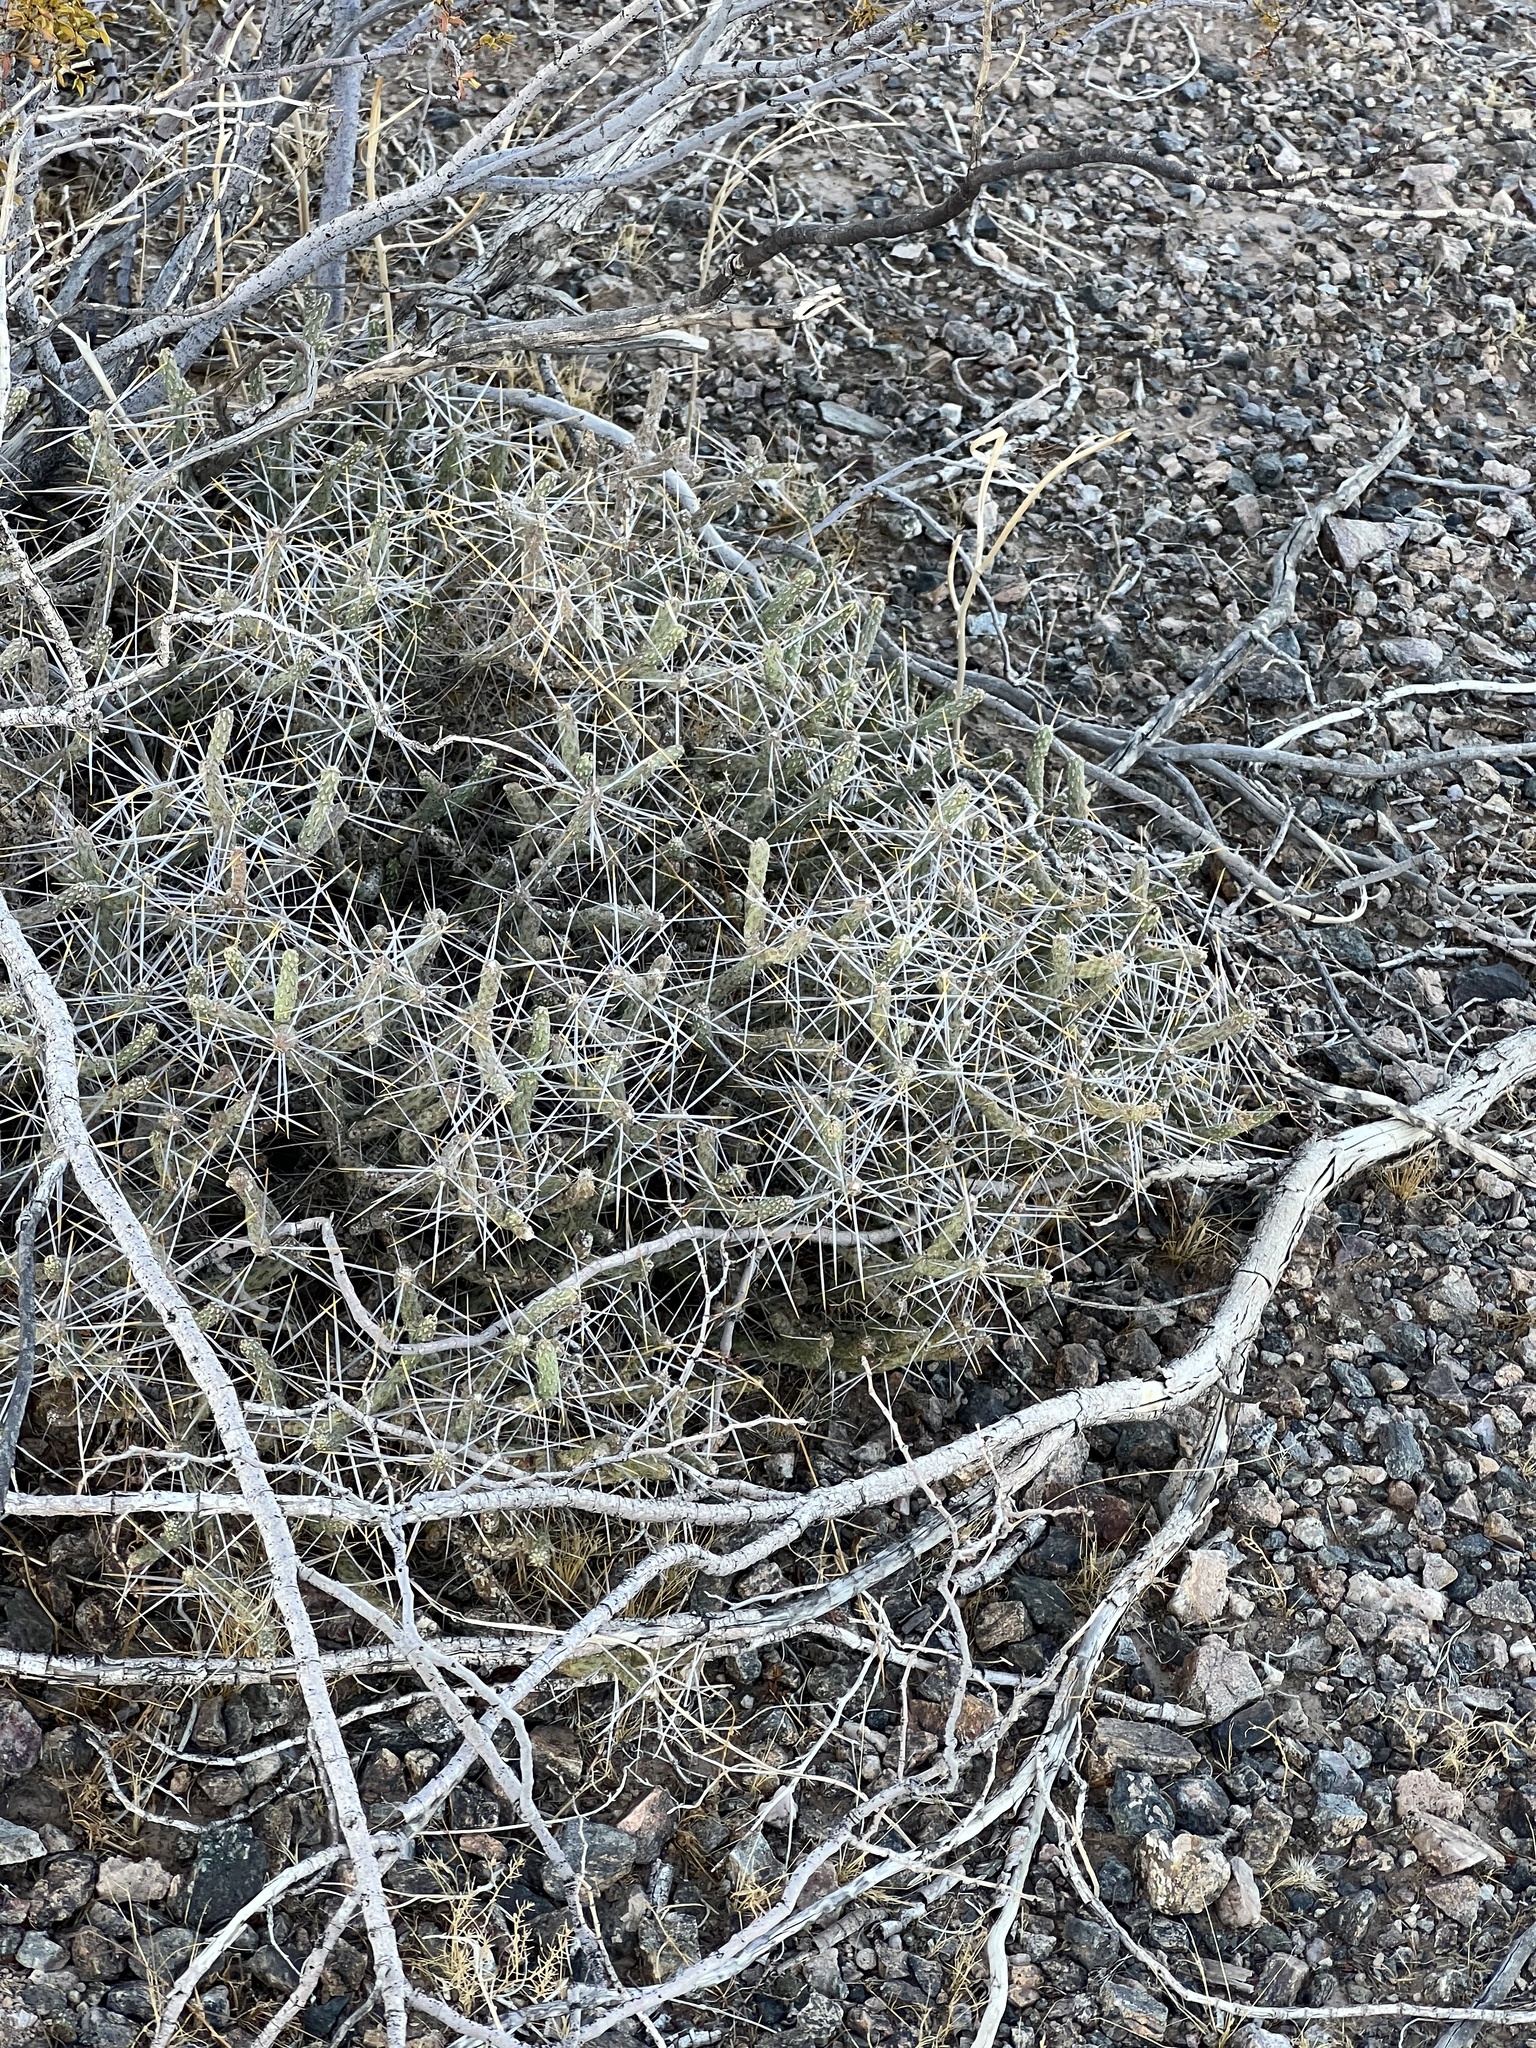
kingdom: Plantae
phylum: Tracheophyta
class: Magnoliopsida
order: Caryophyllales
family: Cactaceae
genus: Cylindropuntia
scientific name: Cylindropuntia ramosissima
